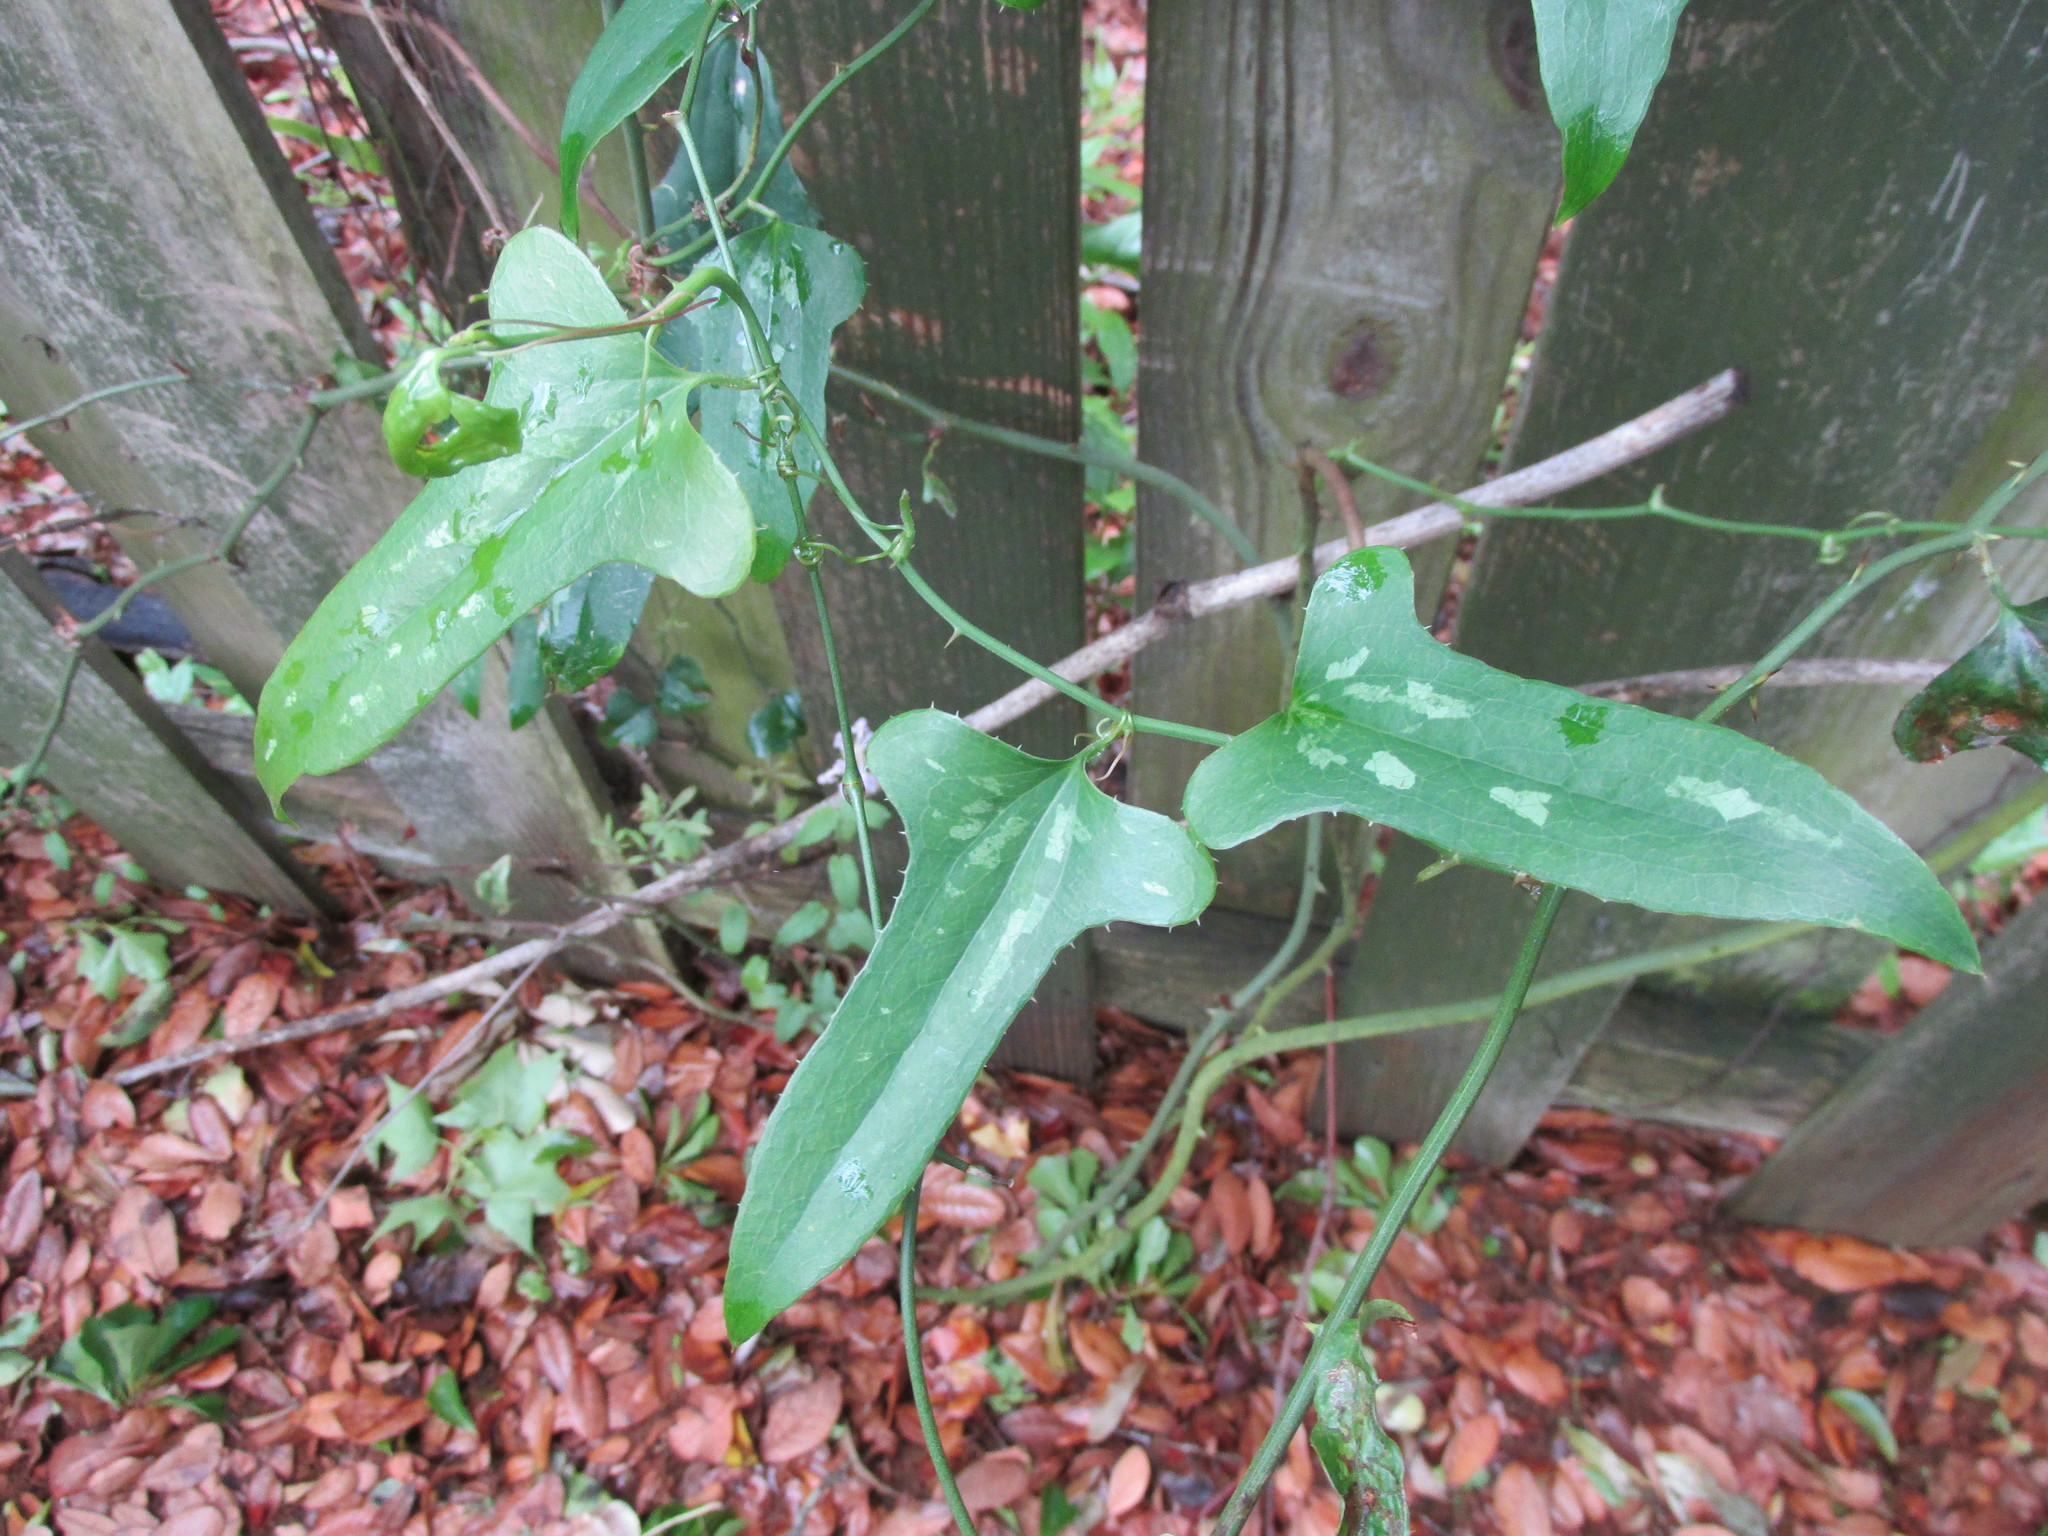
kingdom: Plantae
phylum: Tracheophyta
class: Liliopsida
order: Liliales
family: Smilacaceae
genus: Smilax
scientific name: Smilax bona-nox
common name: Catbrier
